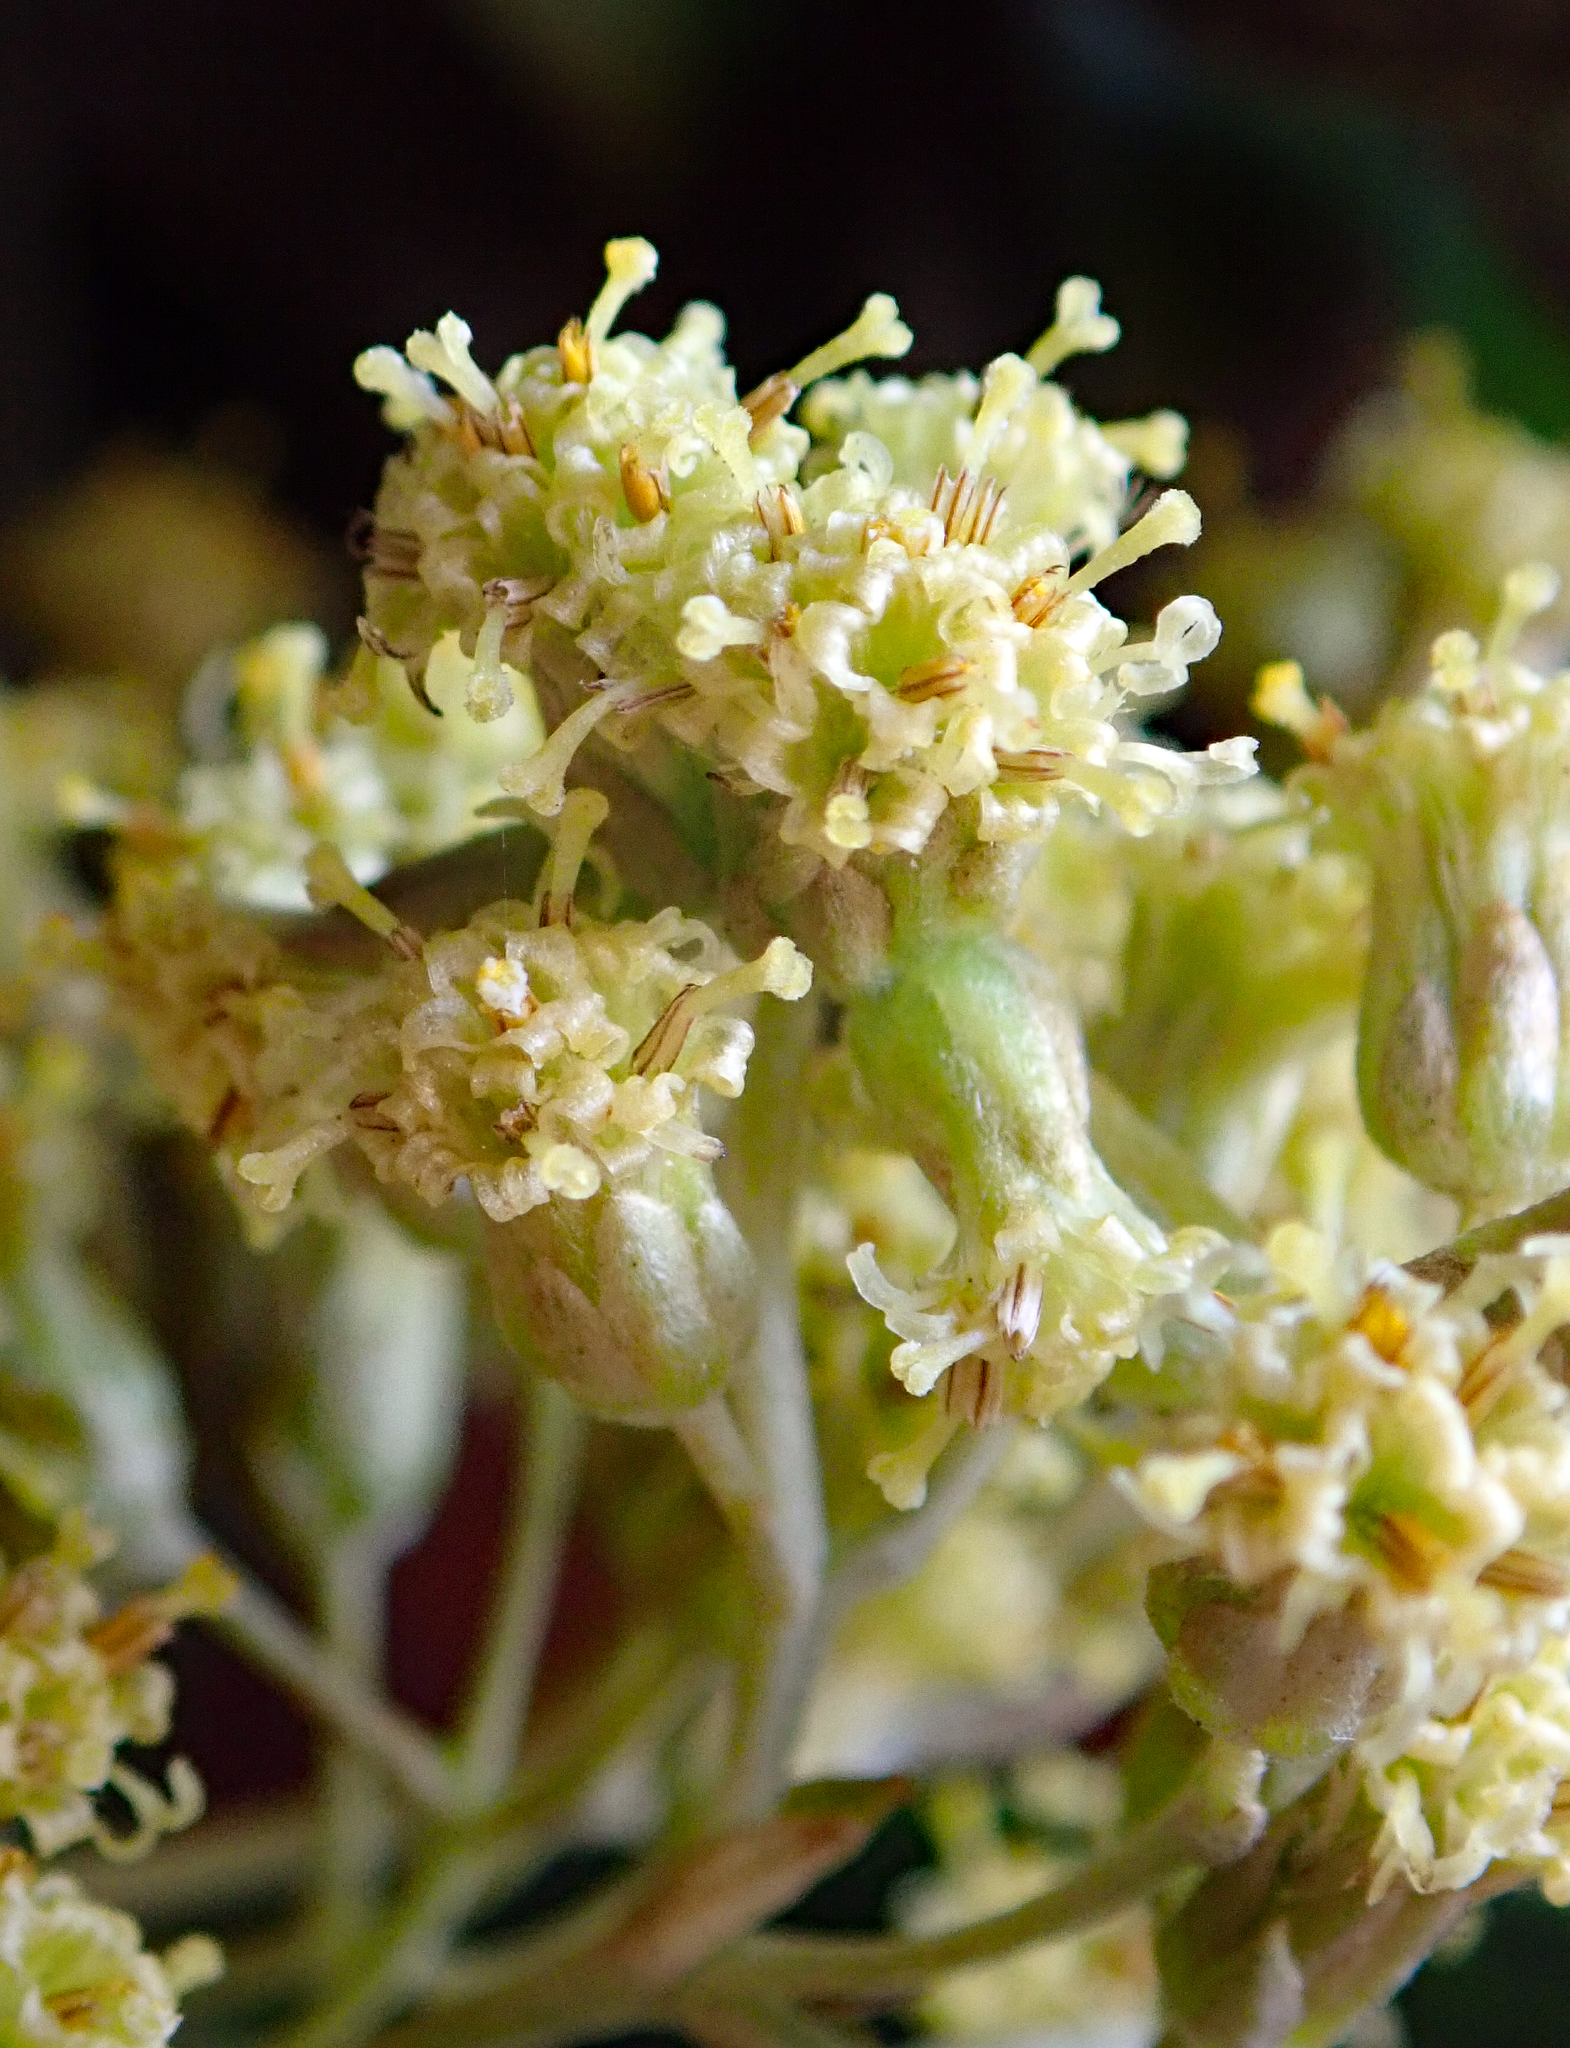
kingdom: Plantae
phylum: Tracheophyta
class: Magnoliopsida
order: Asterales
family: Asteraceae
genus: Olearia
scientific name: Olearia traversiorum
